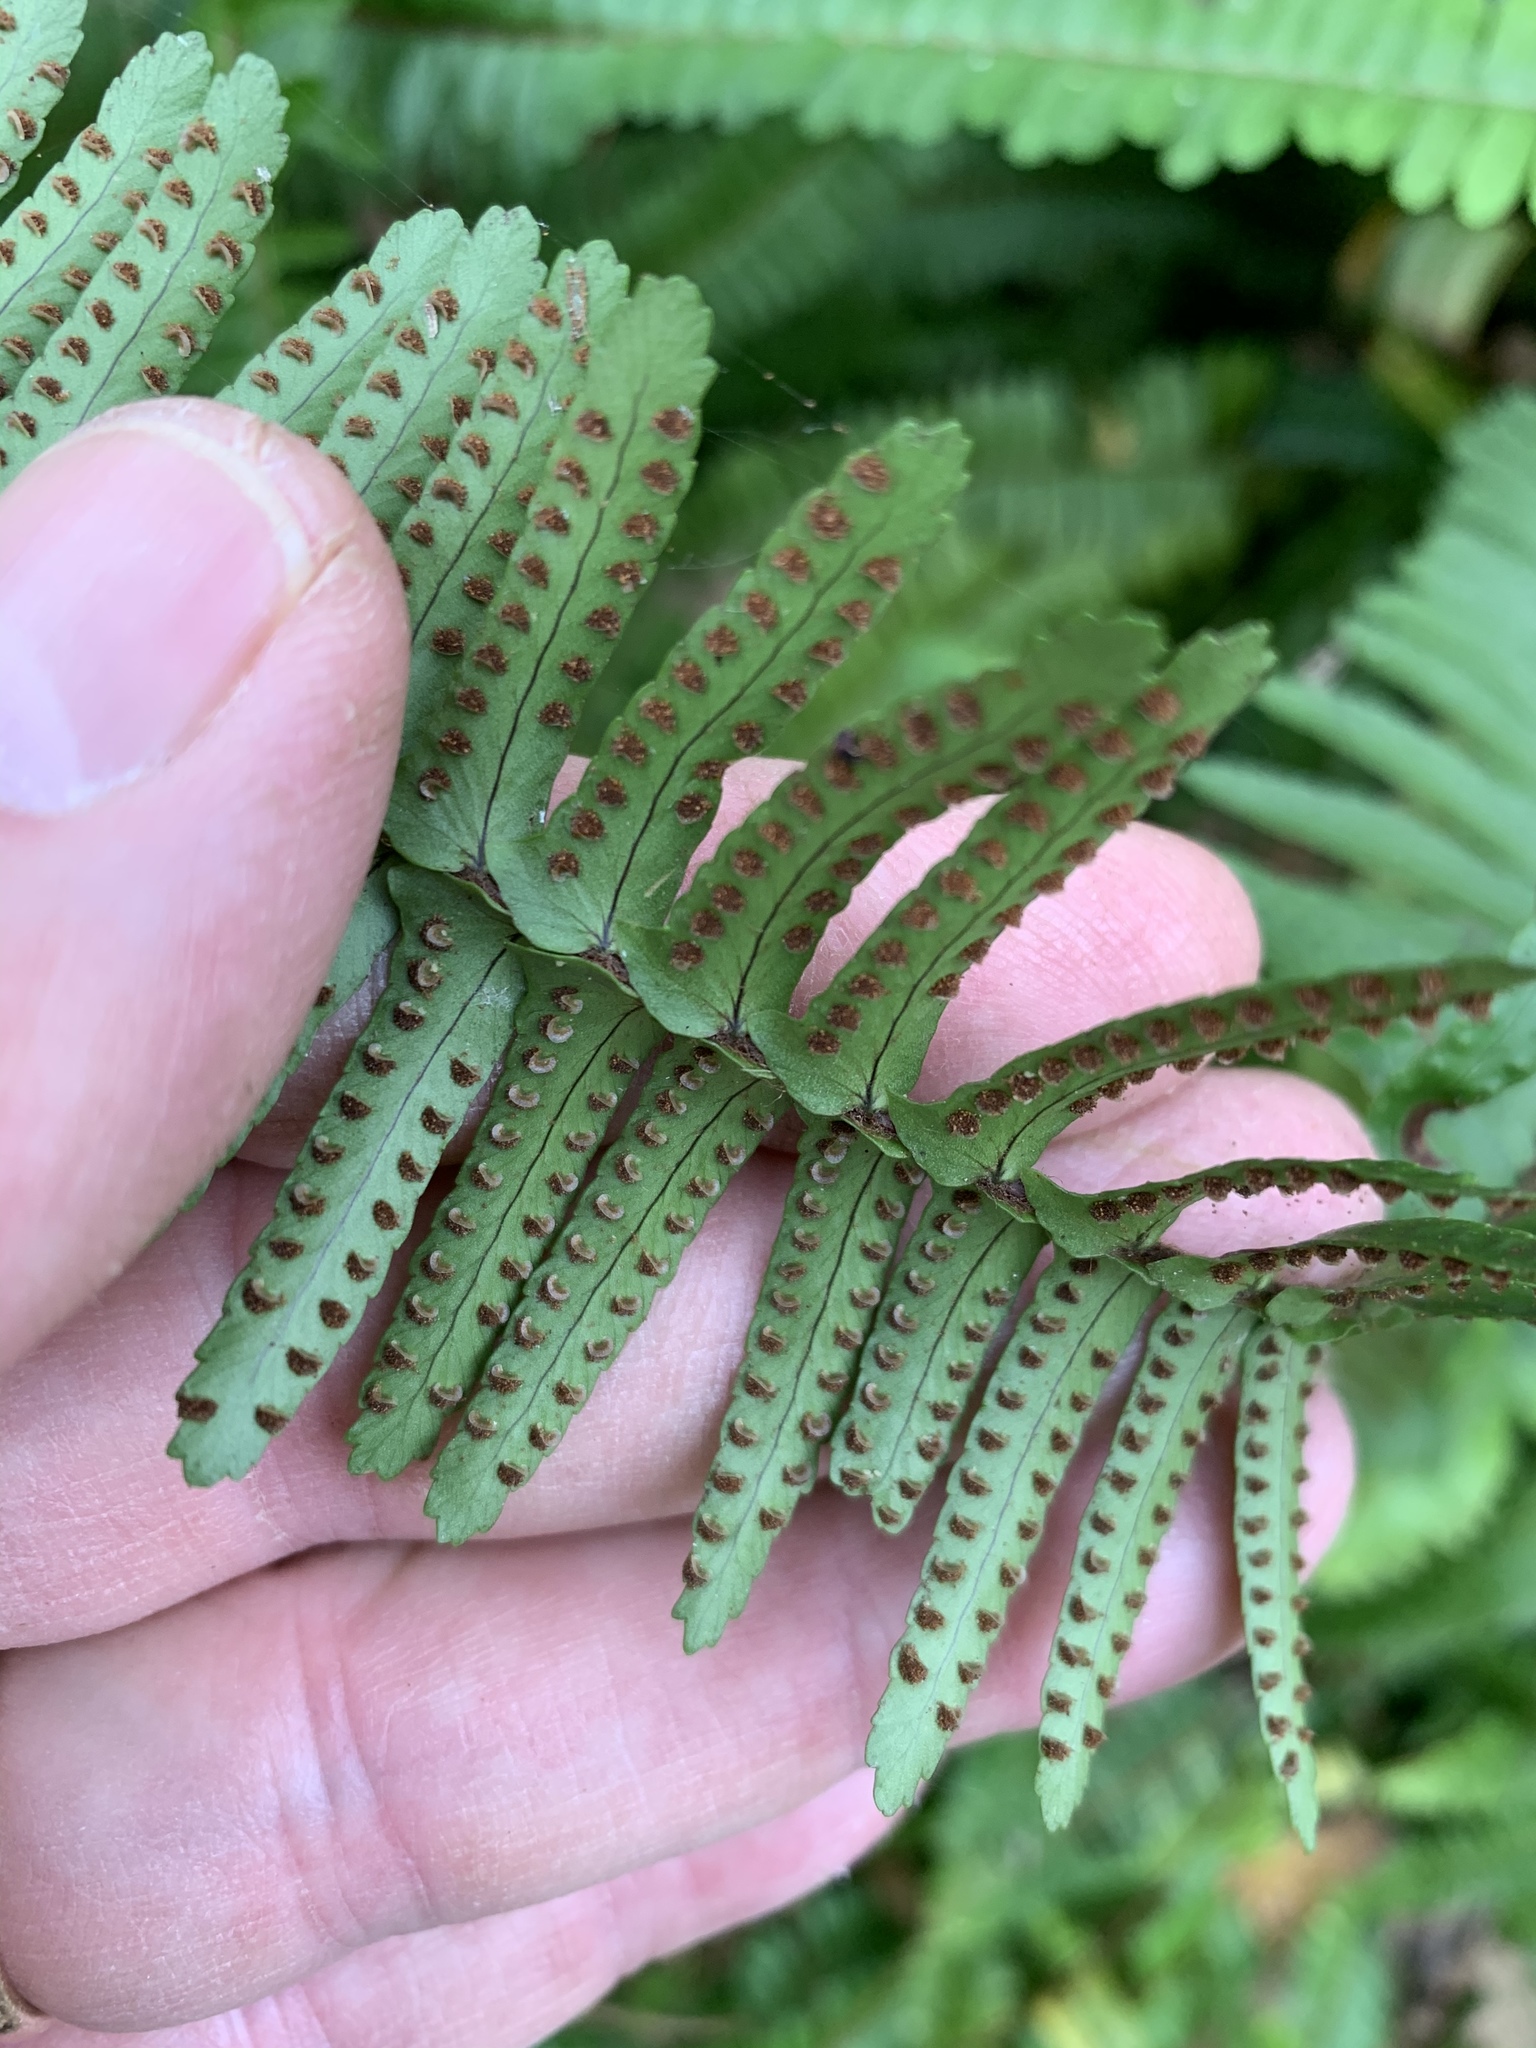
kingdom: Plantae
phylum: Tracheophyta
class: Polypodiopsida
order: Polypodiales
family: Nephrolepidaceae
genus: Nephrolepis
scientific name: Nephrolepis cordifolia
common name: Narrow swordfern
